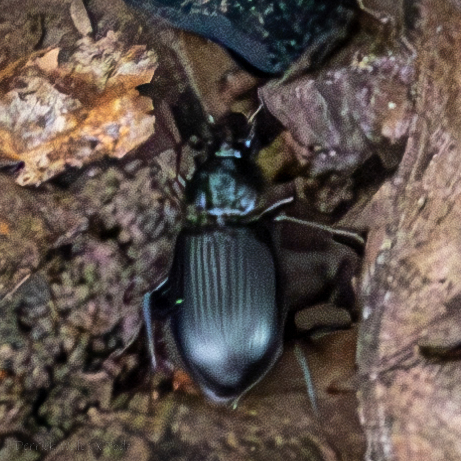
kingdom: Animalia
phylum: Arthropoda
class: Insecta
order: Coleoptera
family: Carabidae
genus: Agonum
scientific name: Agonum punctiforme
